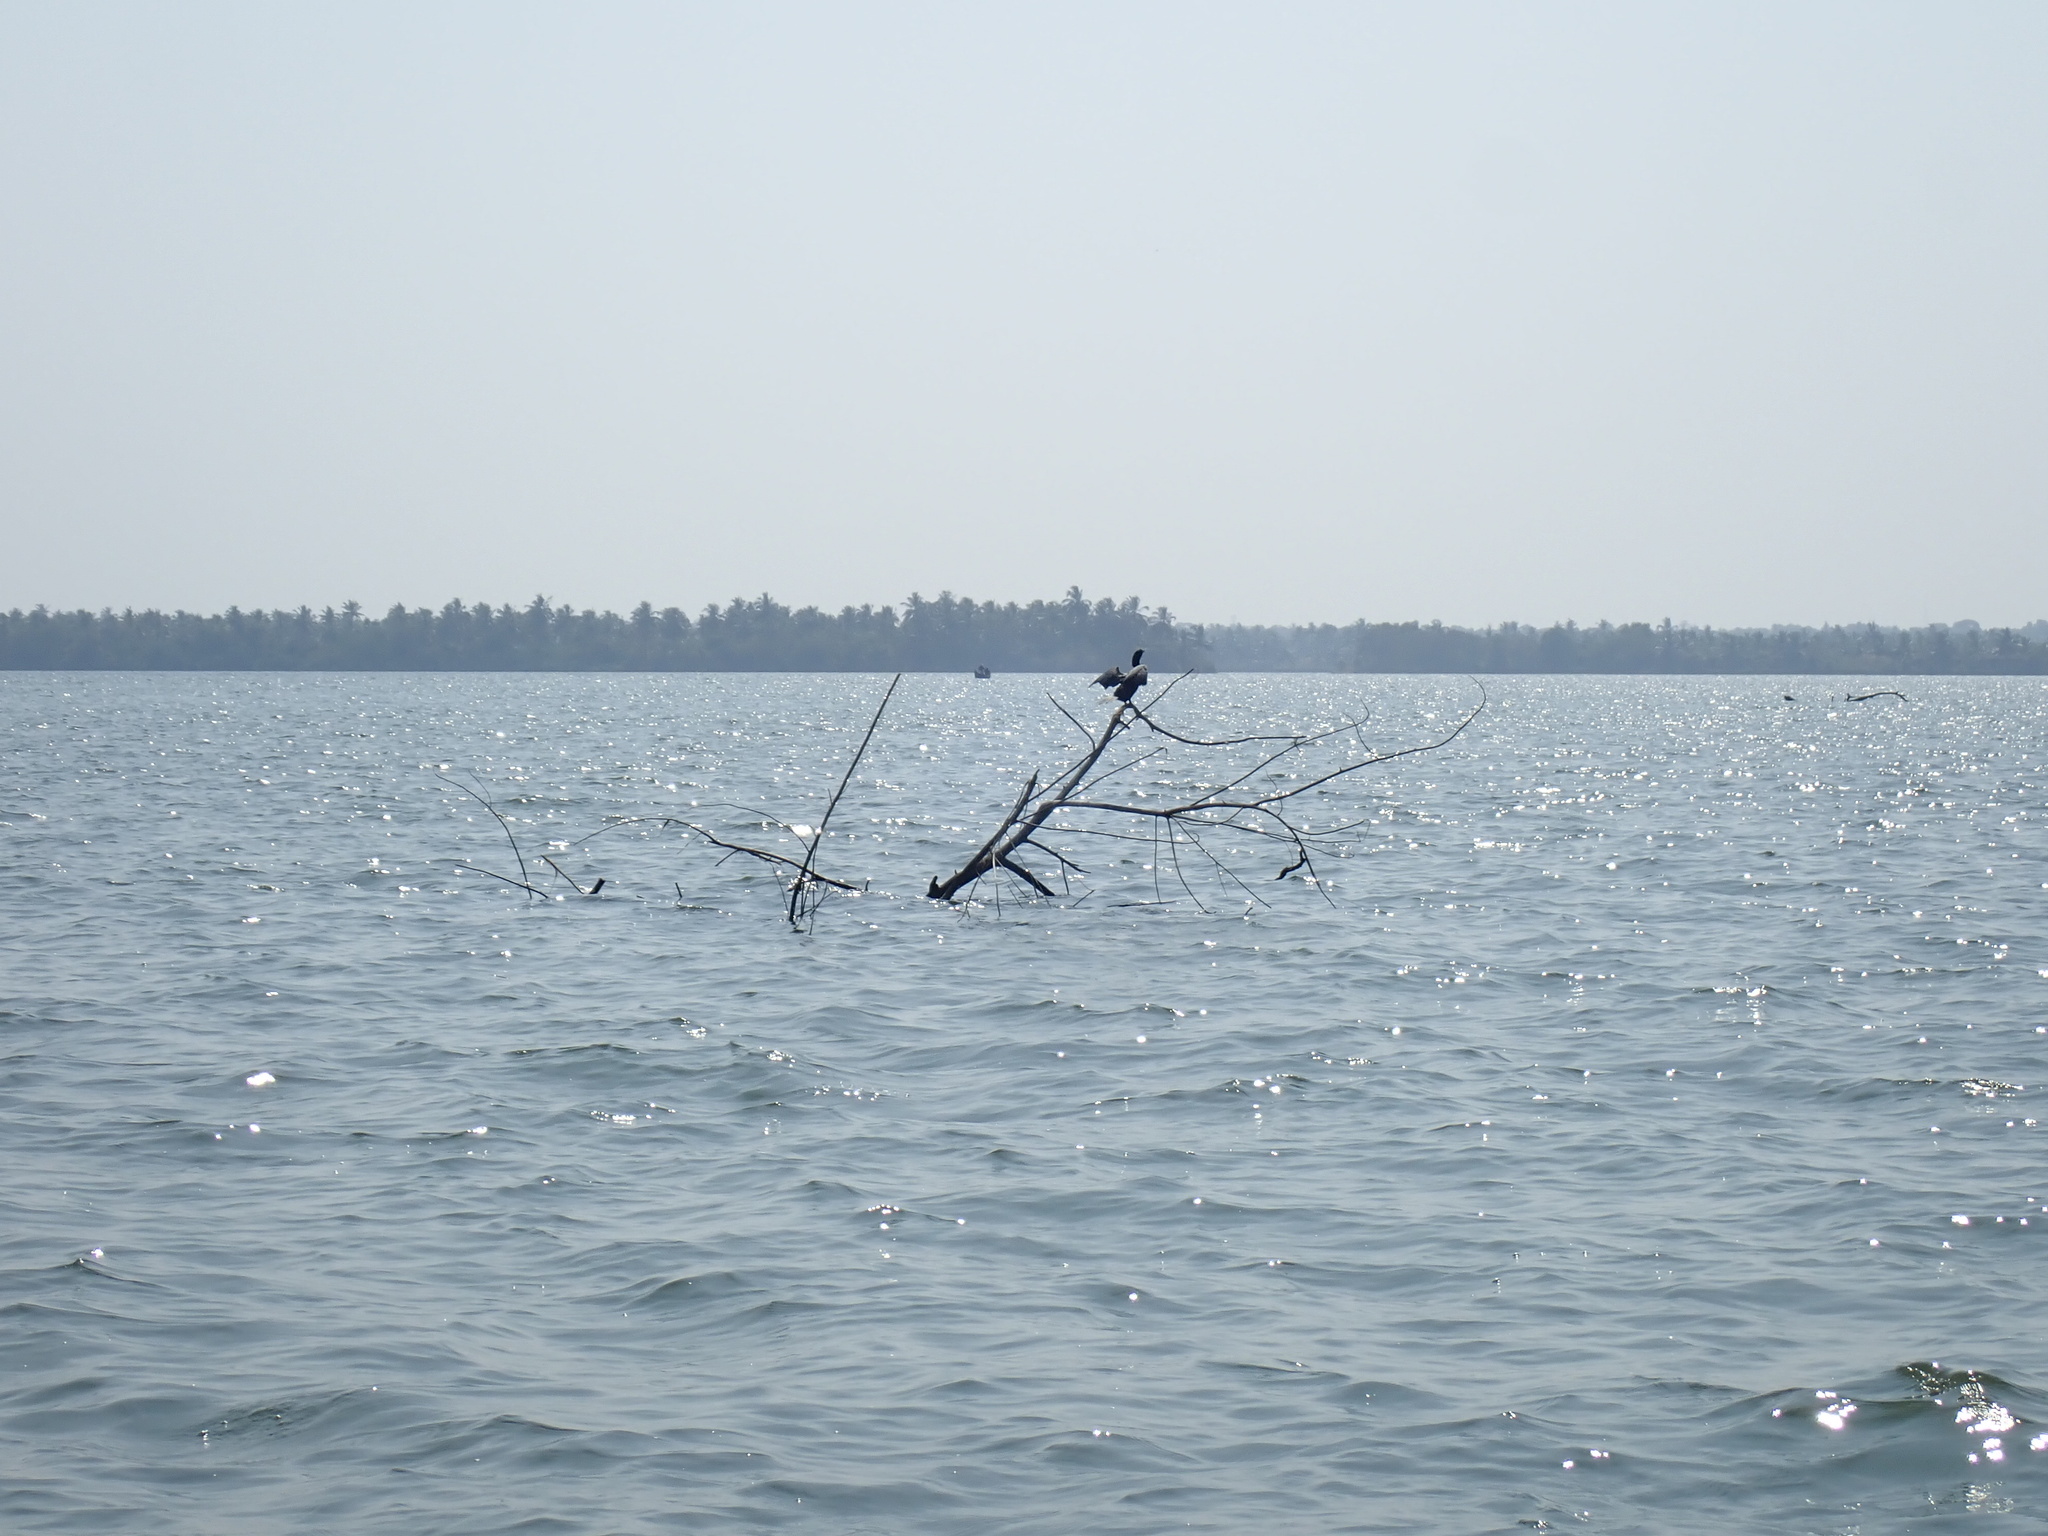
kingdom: Animalia
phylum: Chordata
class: Aves
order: Suliformes
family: Phalacrocoracidae
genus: Microcarbo
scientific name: Microcarbo niger
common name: Little cormorant
